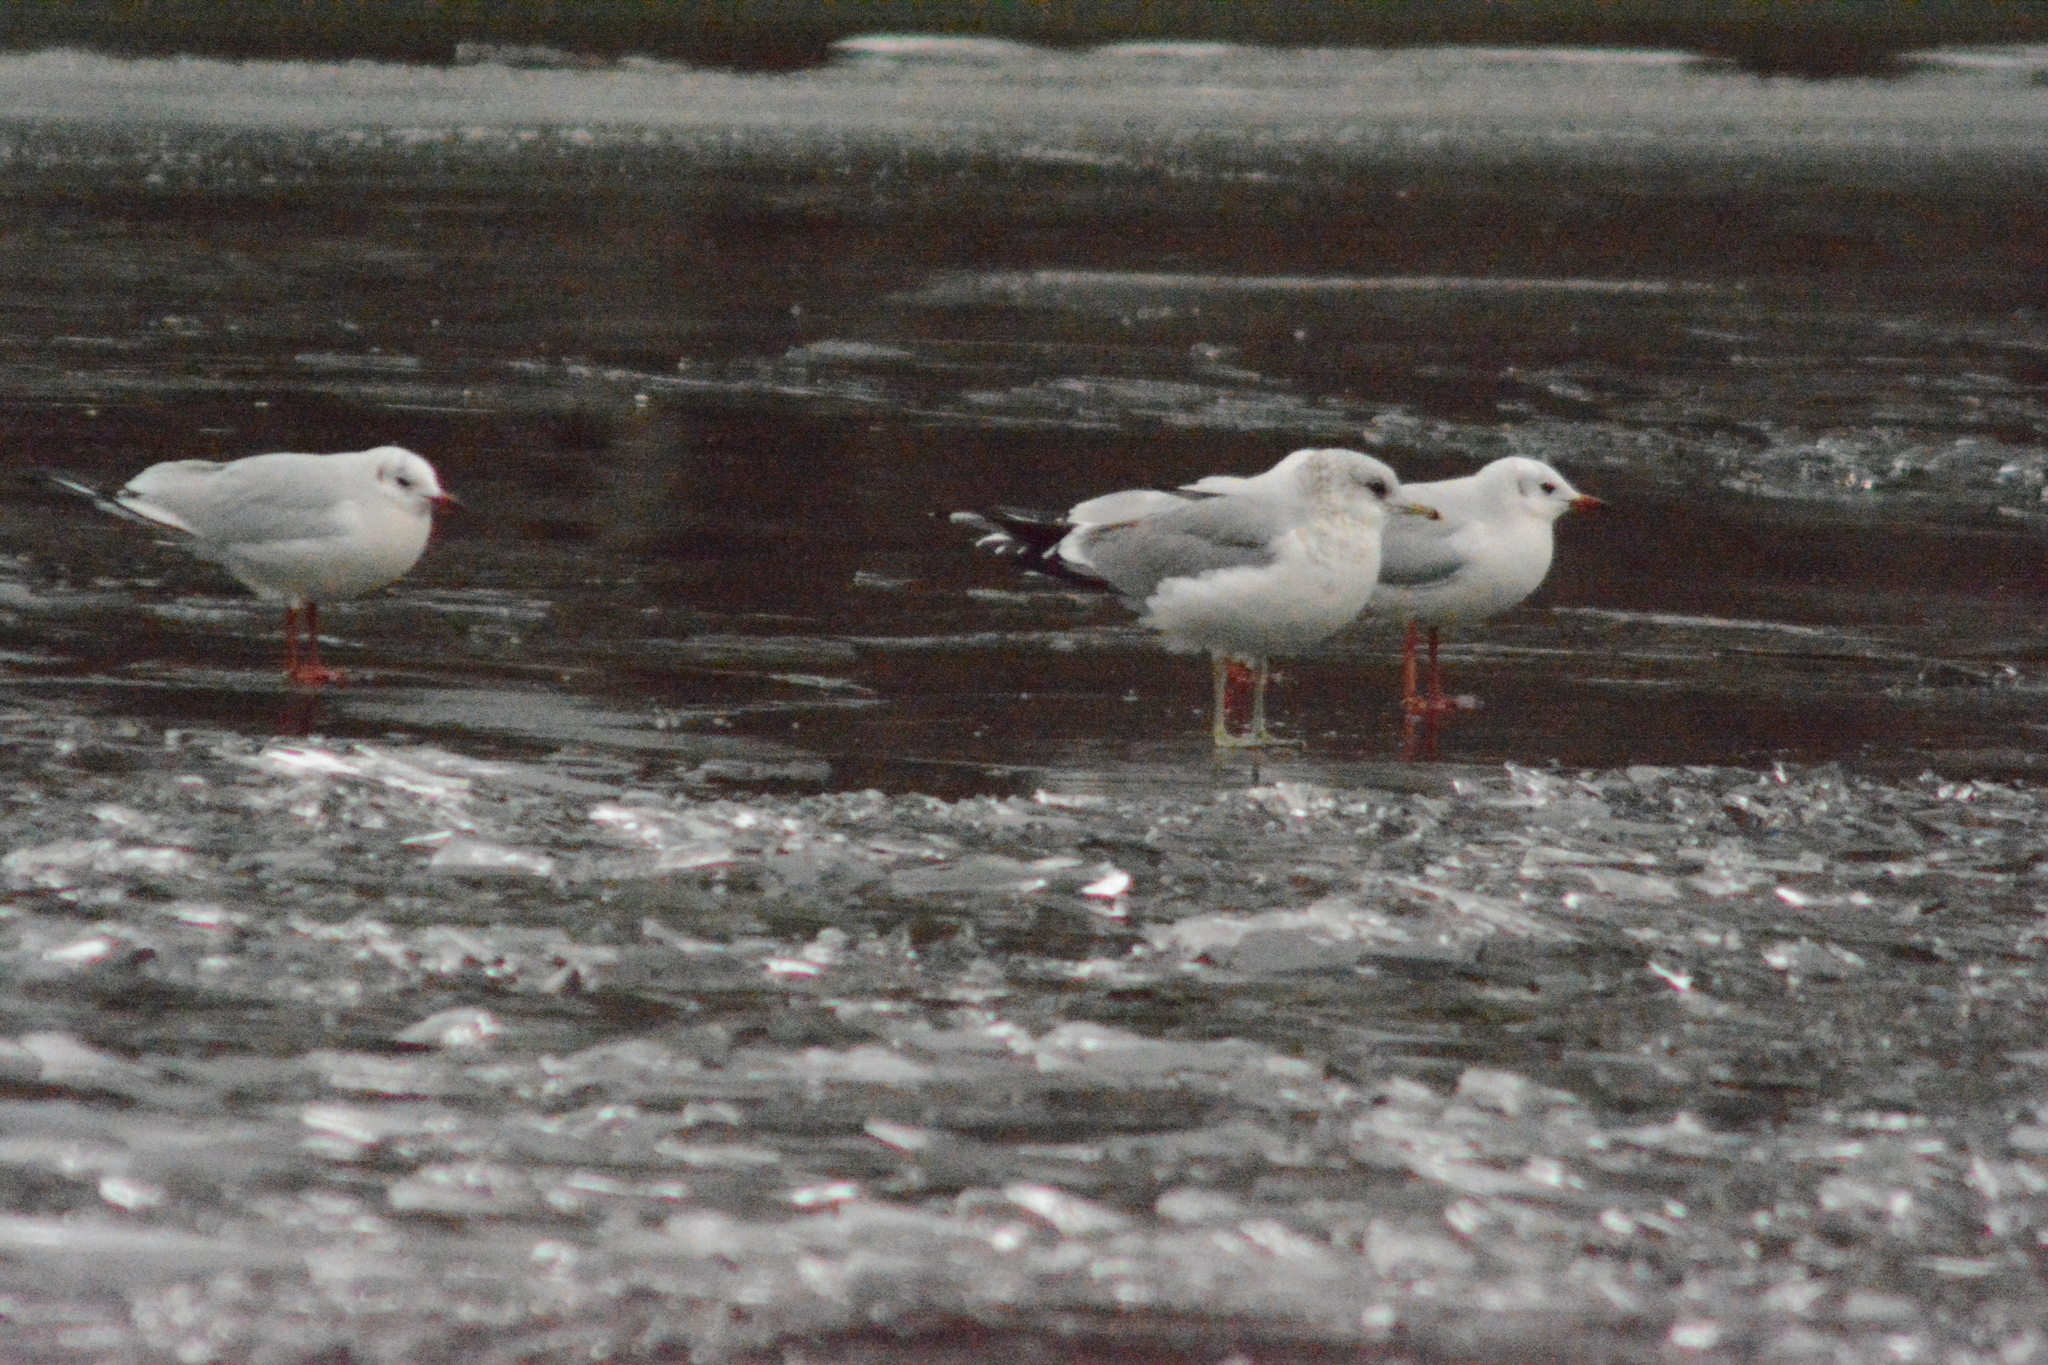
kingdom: Animalia
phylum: Chordata
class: Aves
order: Charadriiformes
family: Laridae
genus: Chroicocephalus
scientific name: Chroicocephalus ridibundus
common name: Black-headed gull
